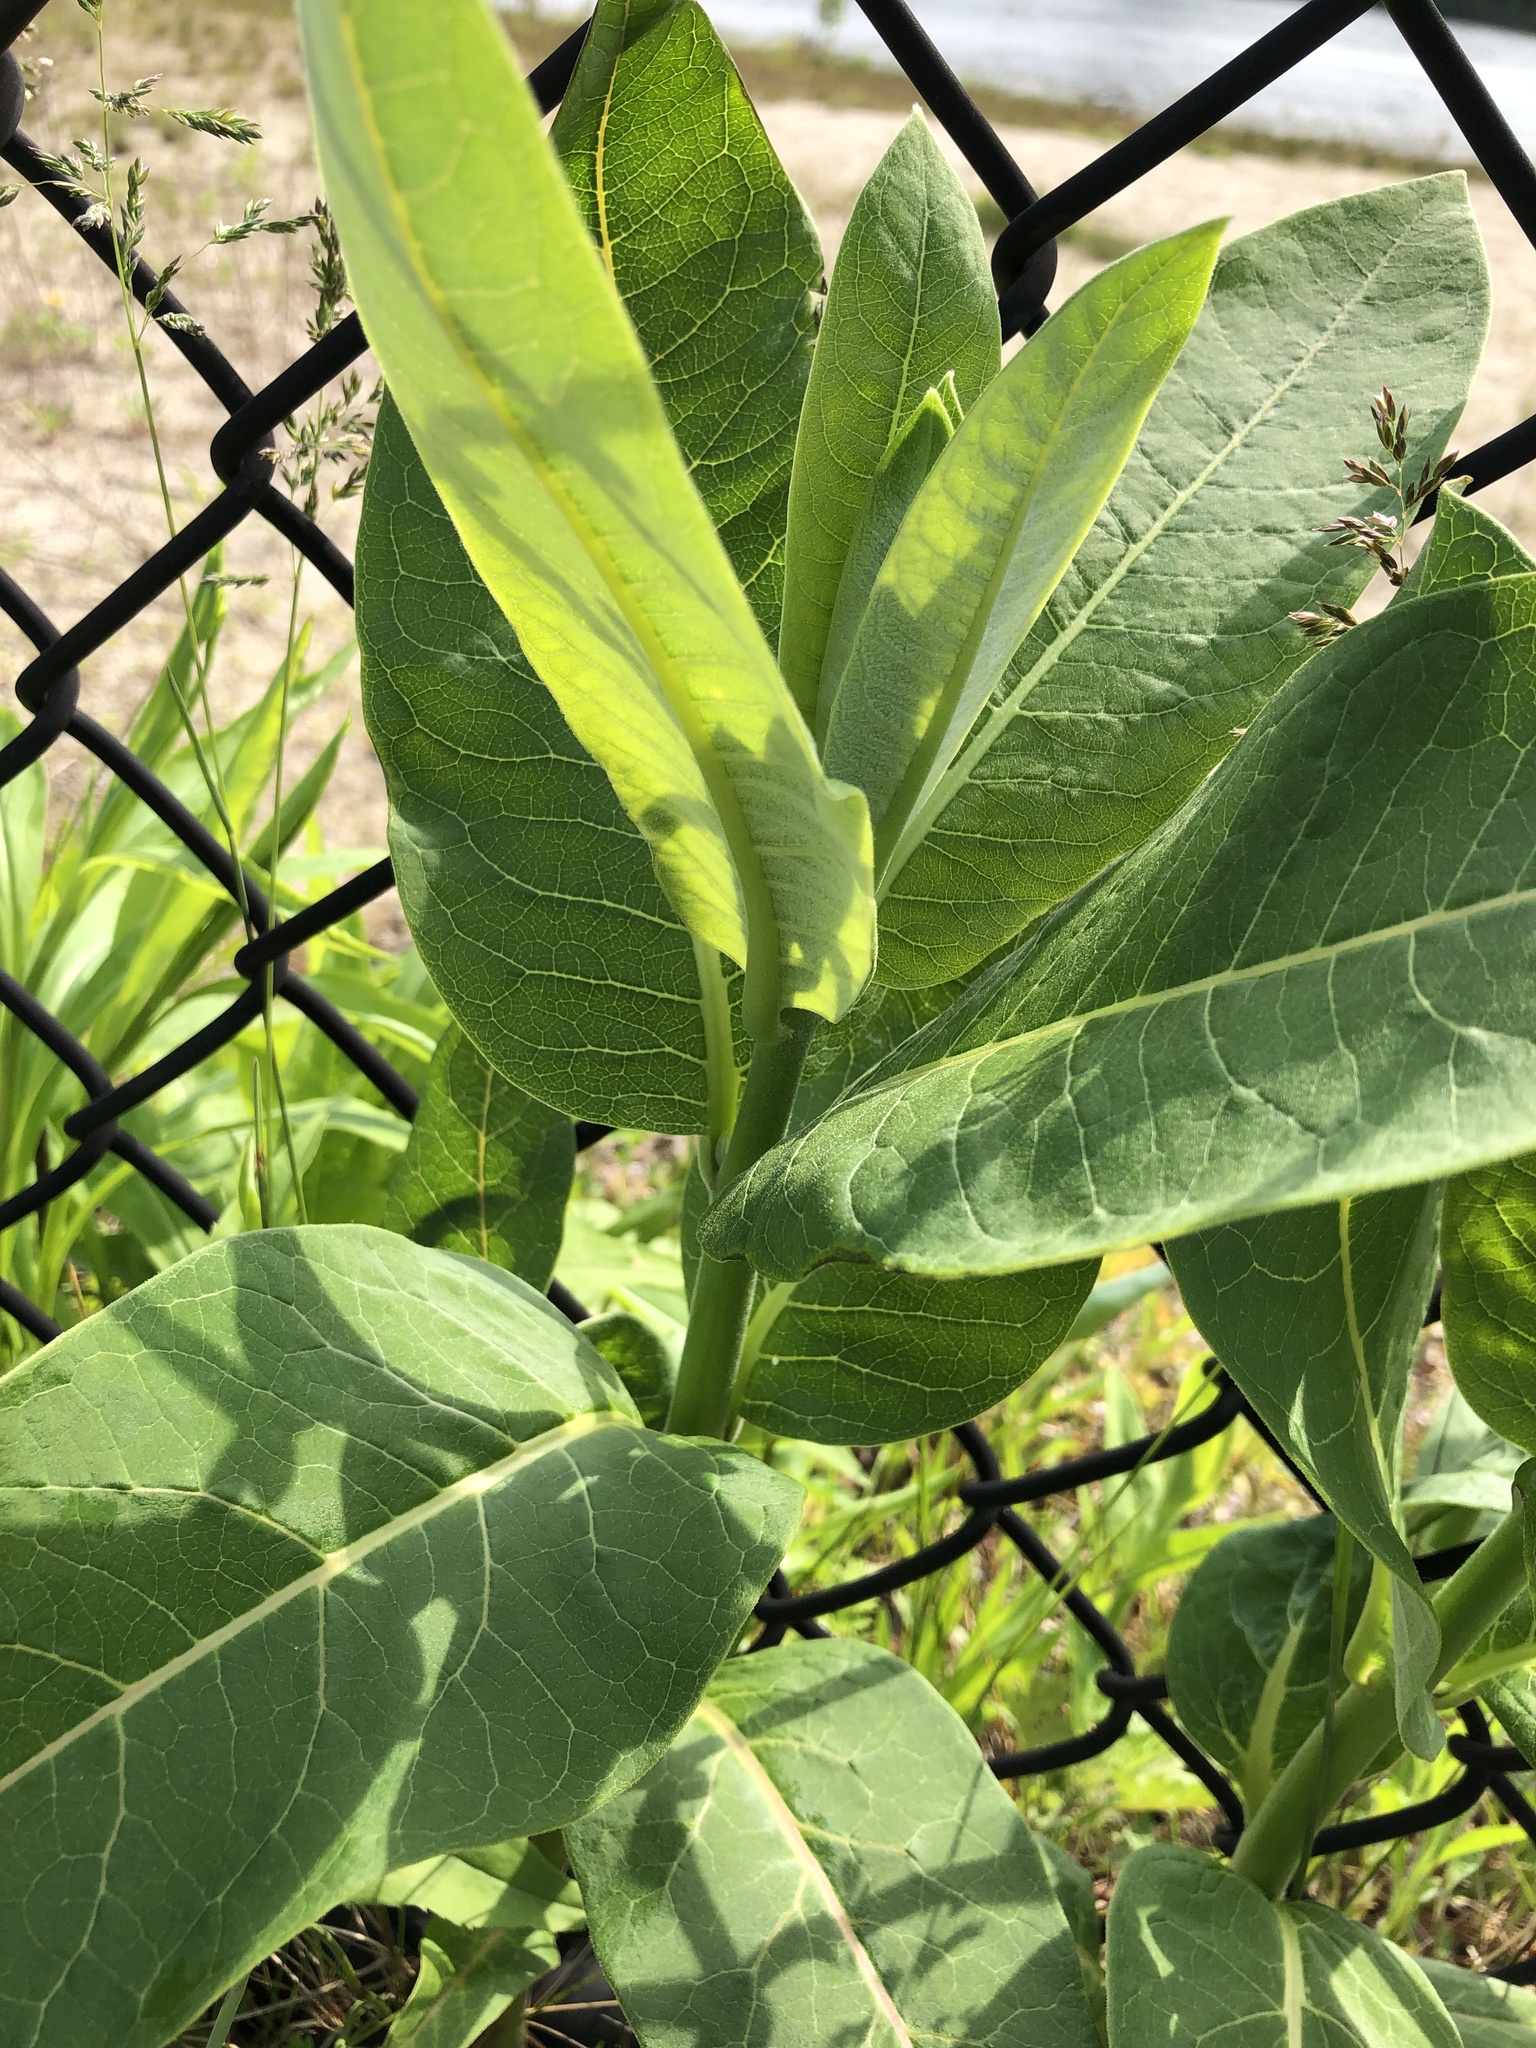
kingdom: Plantae
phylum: Tracheophyta
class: Magnoliopsida
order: Gentianales
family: Apocynaceae
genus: Asclepias
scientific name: Asclepias syriaca
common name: Common milkweed
